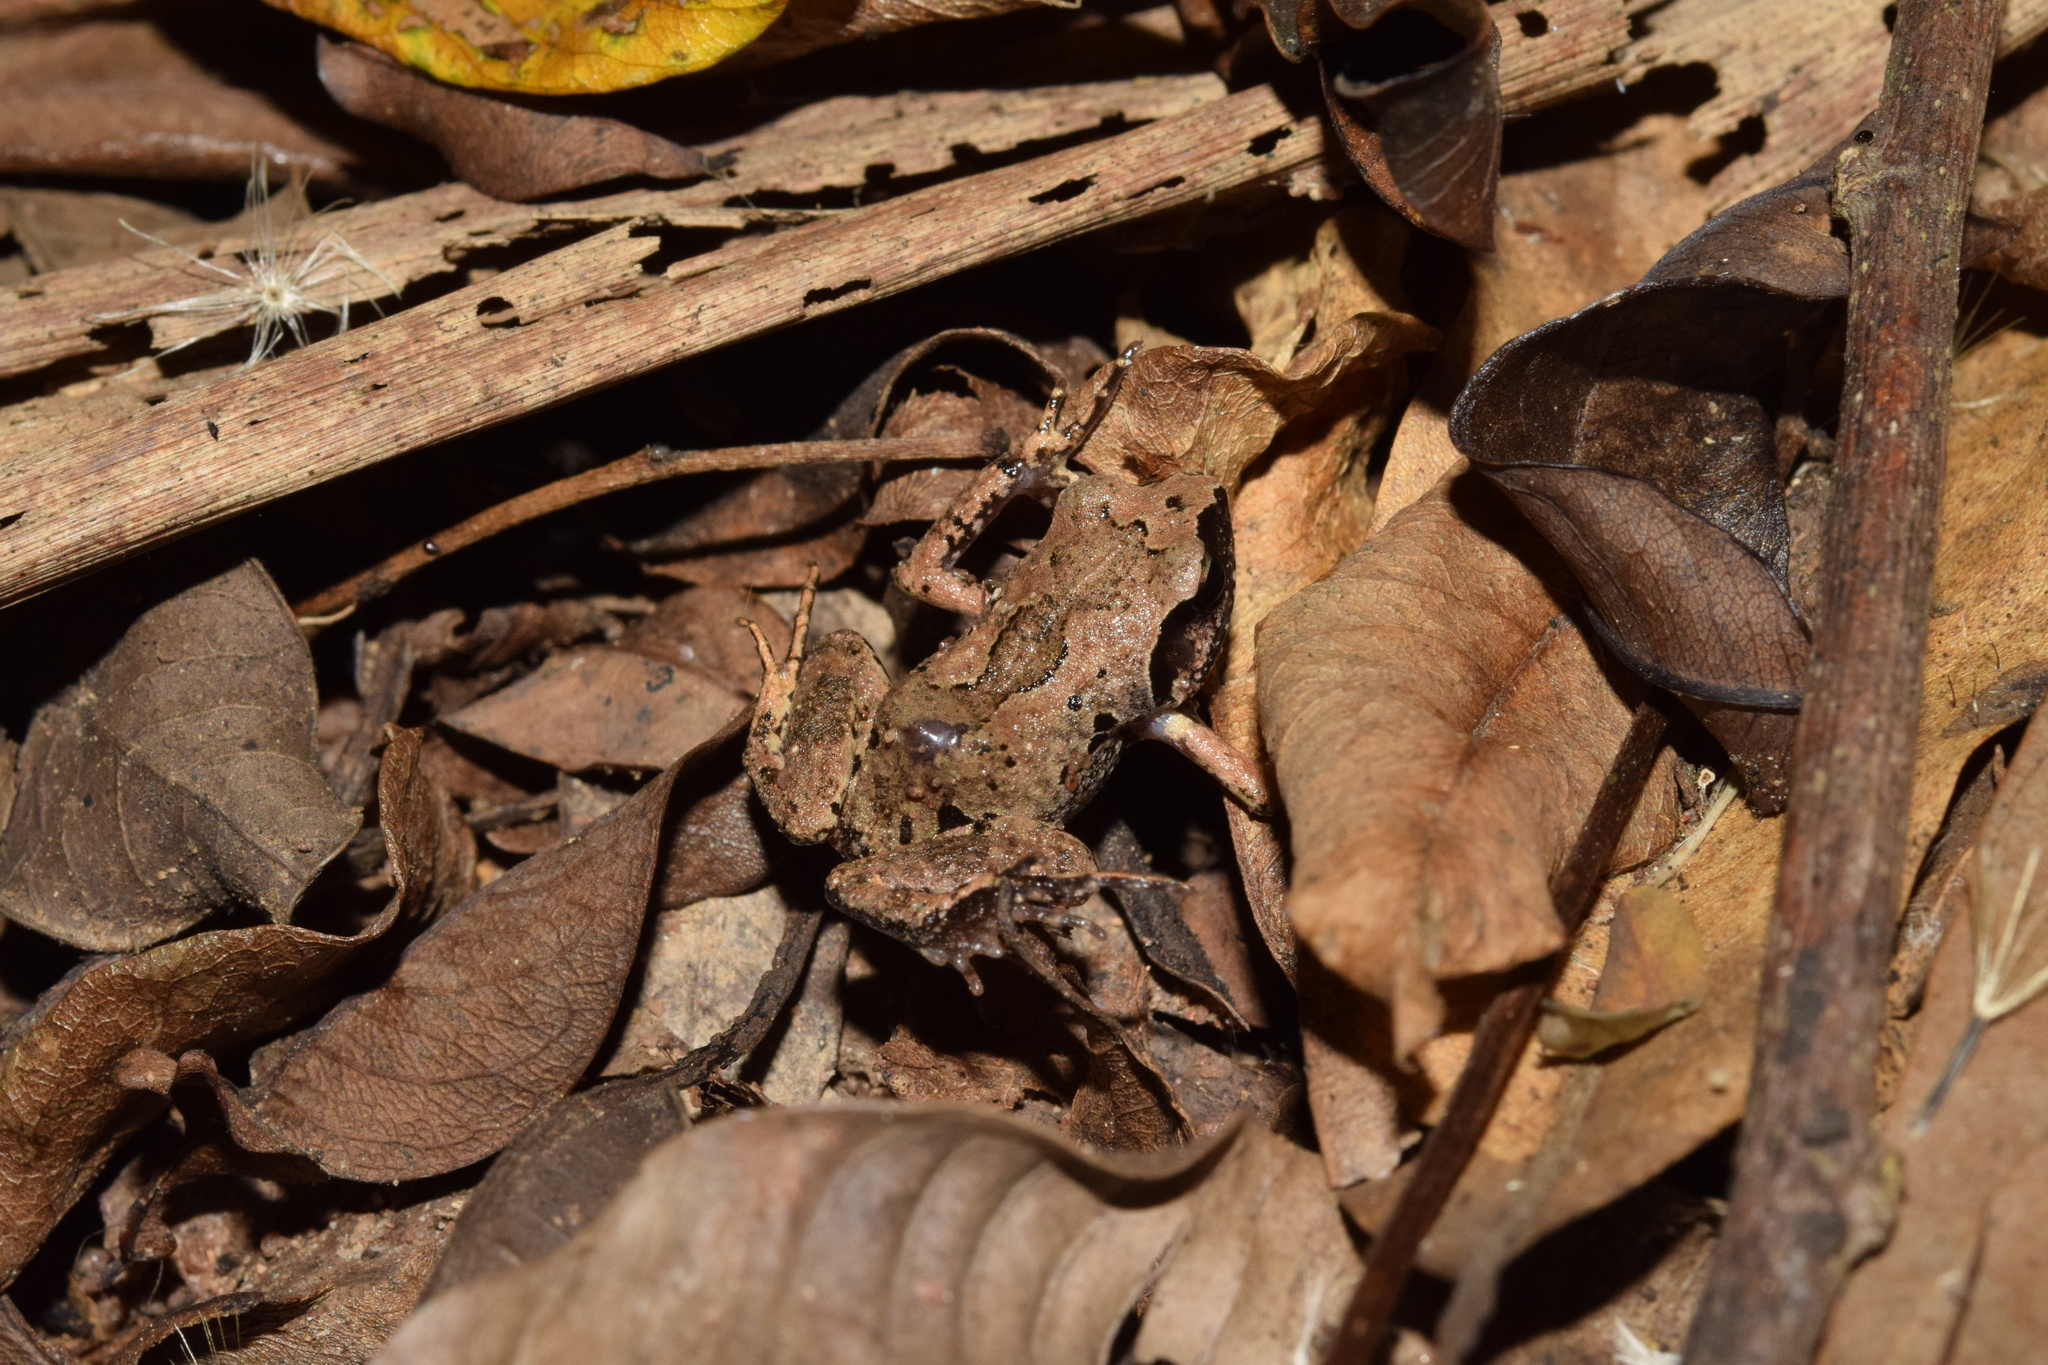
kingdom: Animalia
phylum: Chordata
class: Amphibia
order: Anura
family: Arthroleptidae
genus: Arthroleptis
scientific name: Arthroleptis wahlbergii
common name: Bush squeaker
